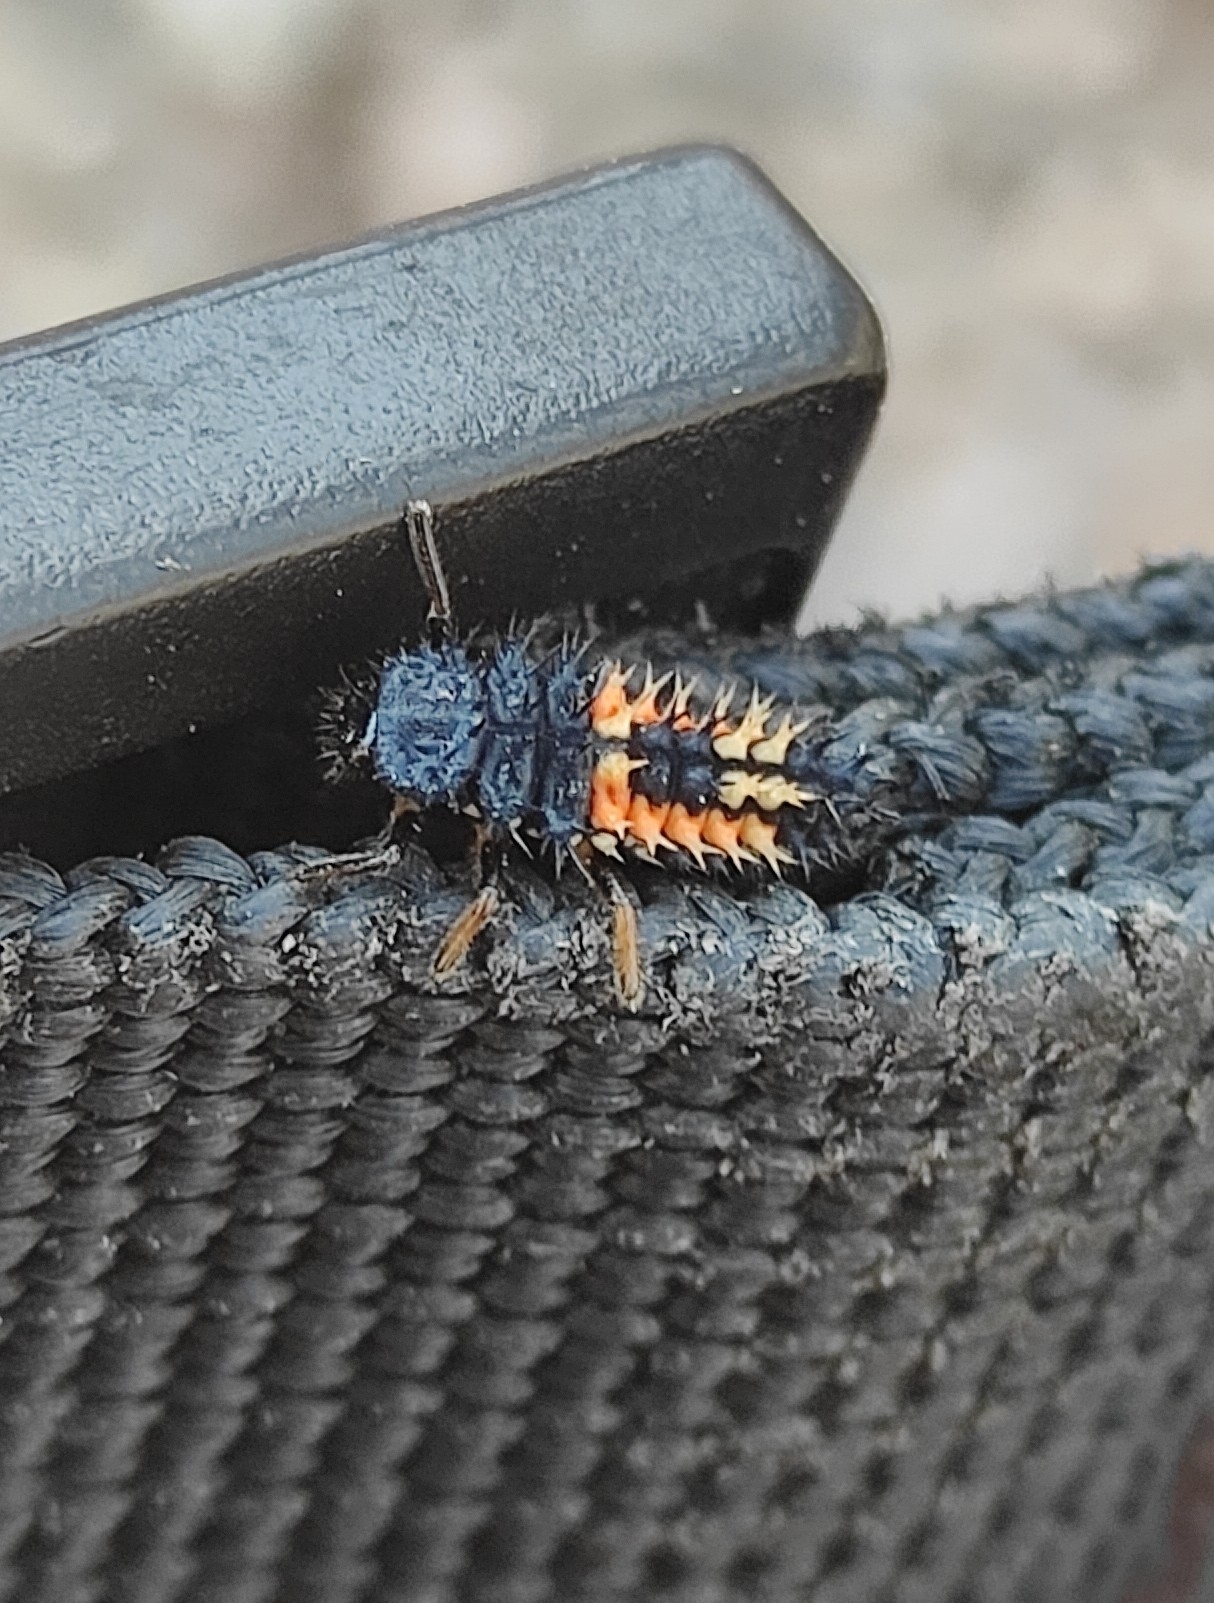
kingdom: Animalia
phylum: Arthropoda
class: Insecta
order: Coleoptera
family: Coccinellidae
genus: Harmonia
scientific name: Harmonia axyridis
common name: Harlequin ladybird
